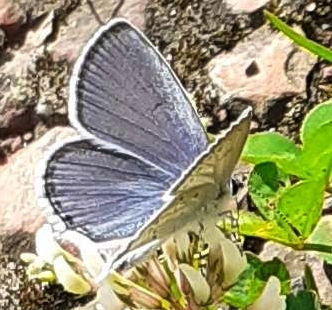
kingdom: Animalia
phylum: Arthropoda
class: Insecta
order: Lepidoptera
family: Lycaenidae
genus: Elkalyce
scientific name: Elkalyce argiades
